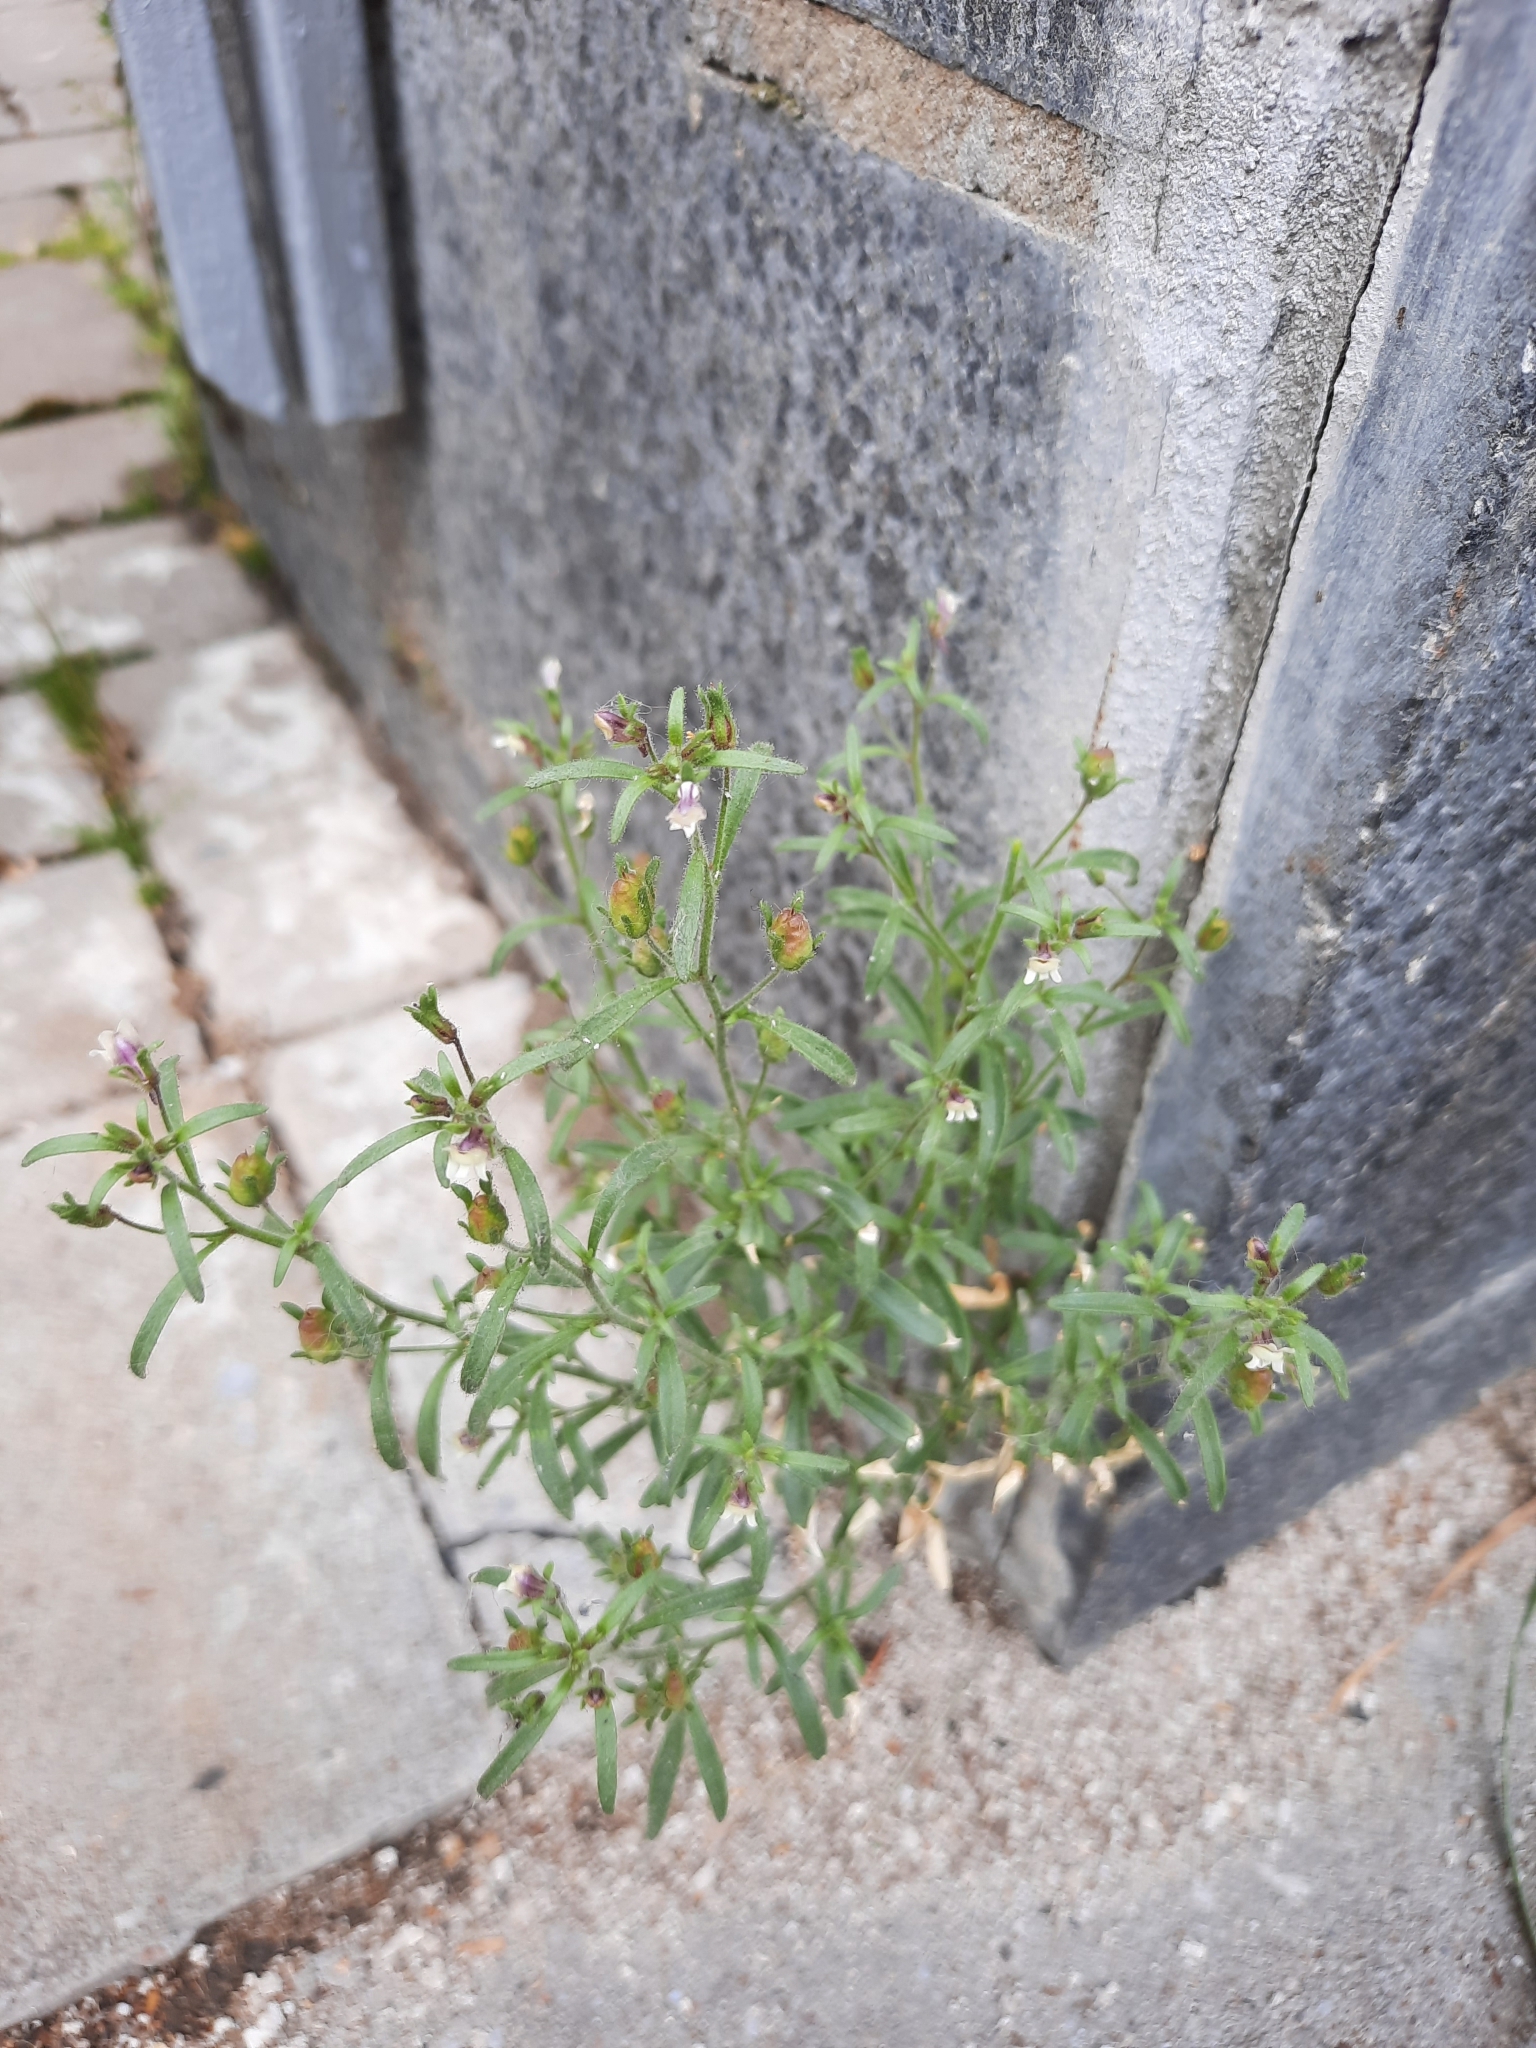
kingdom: Plantae
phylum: Tracheophyta
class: Magnoliopsida
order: Lamiales
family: Plantaginaceae
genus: Chaenorhinum
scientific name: Chaenorhinum minus
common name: Dwarf snapdragon
